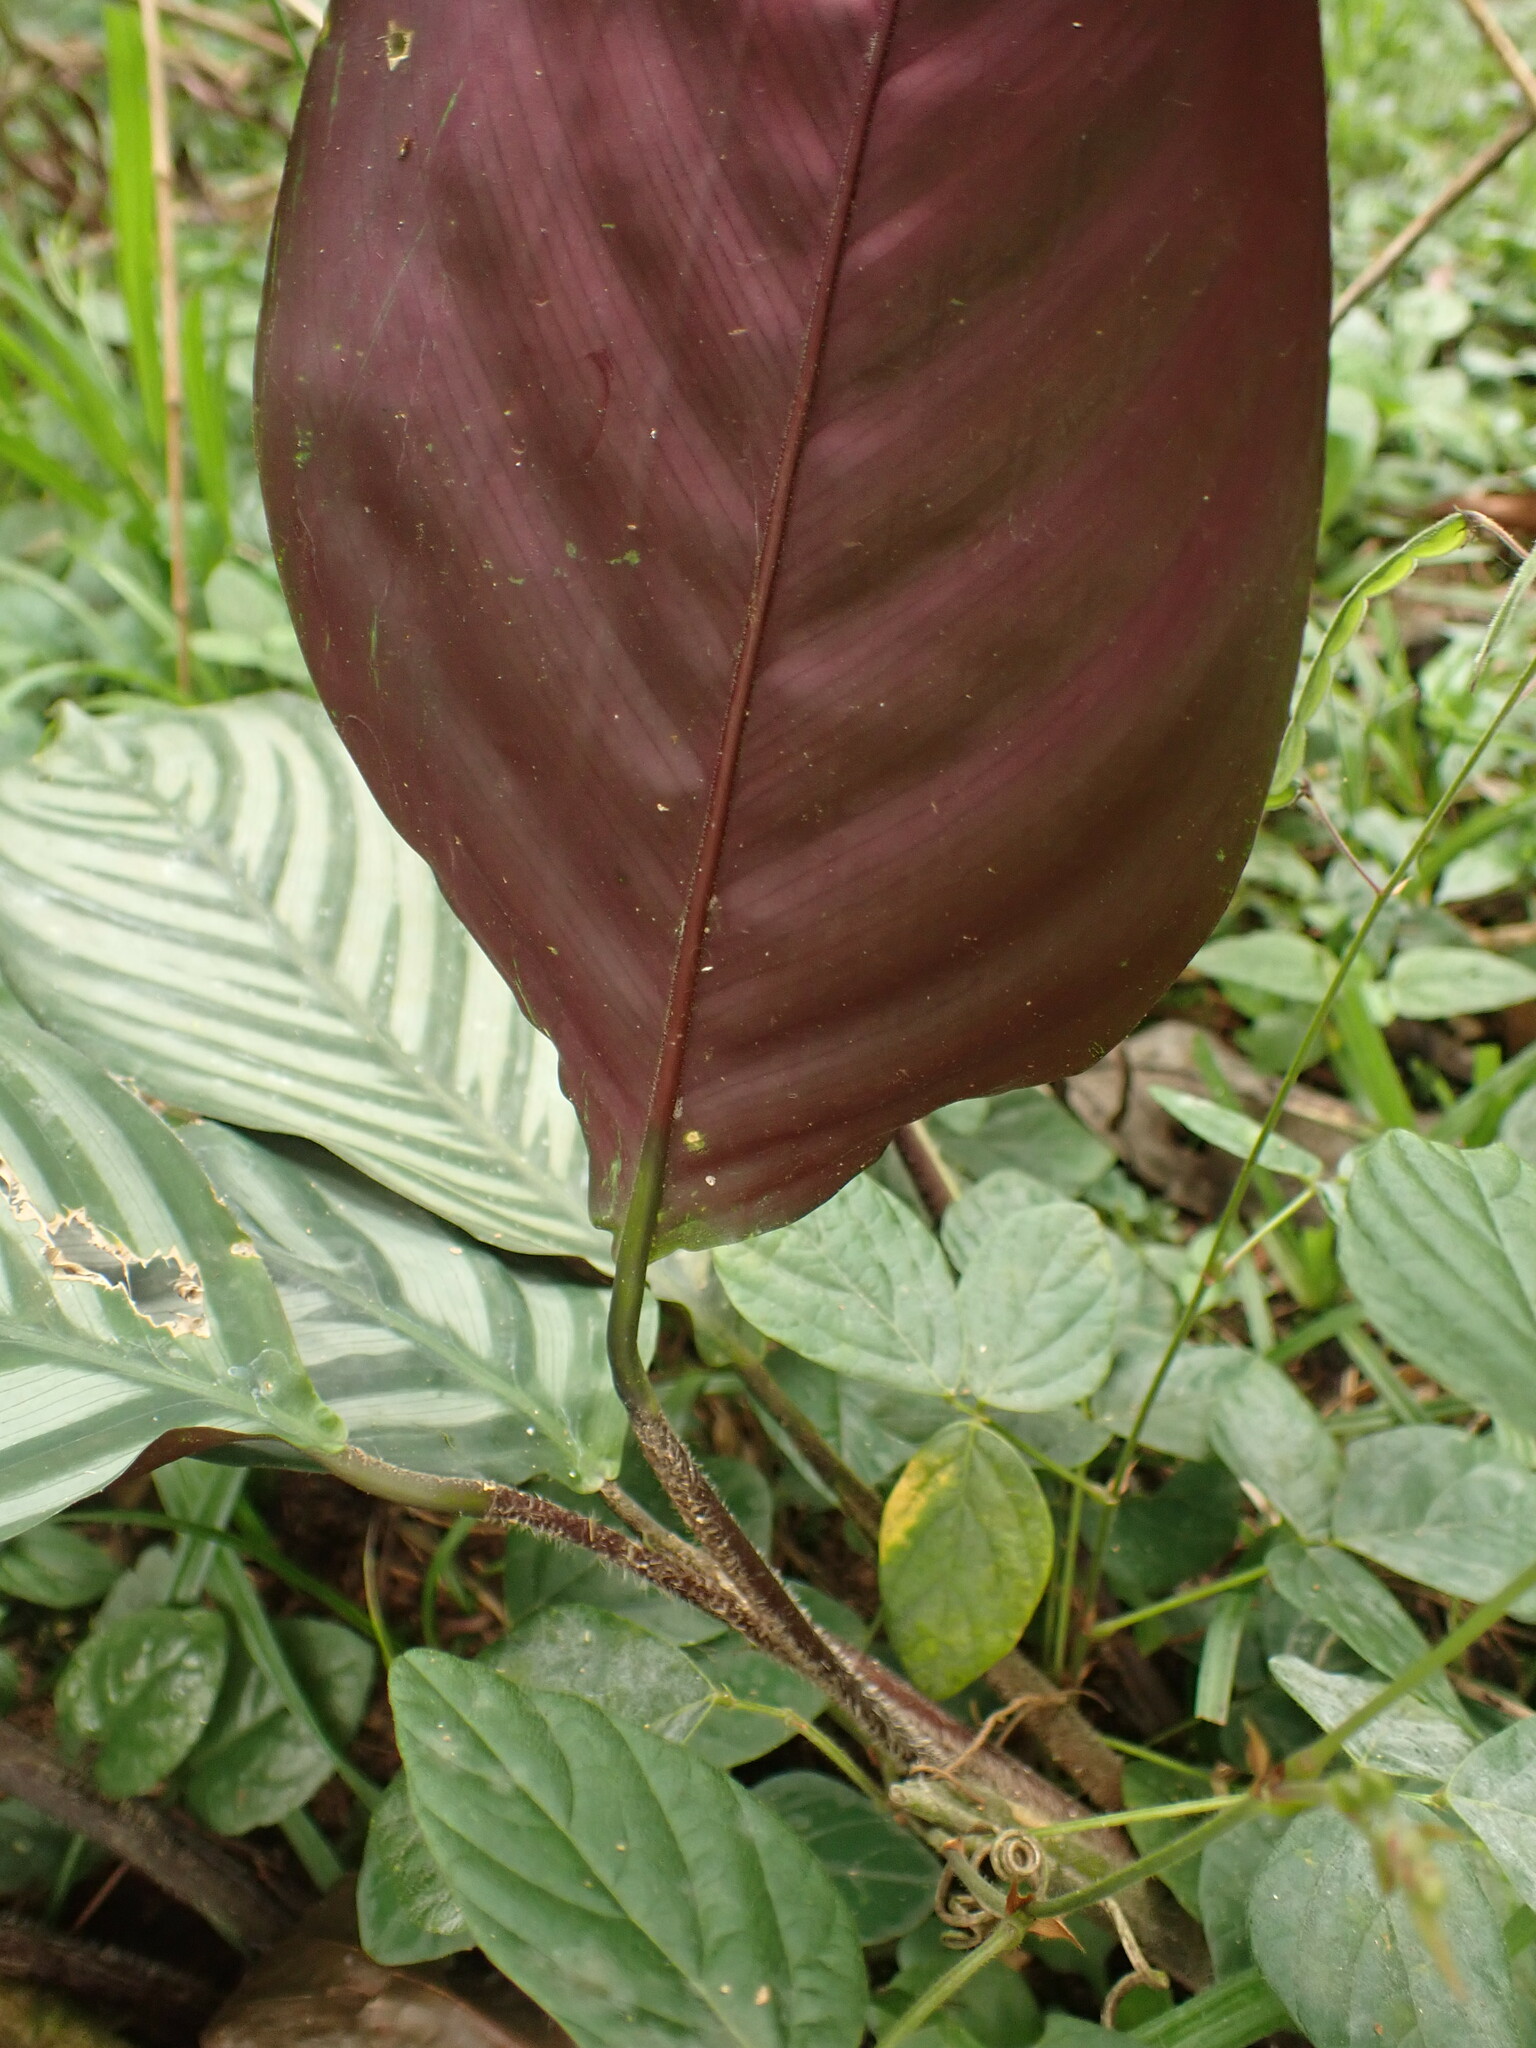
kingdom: Plantae
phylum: Tracheophyta
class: Liliopsida
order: Zingiberales
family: Marantaceae
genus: Ctenanthe
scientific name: Ctenanthe marantifolia
